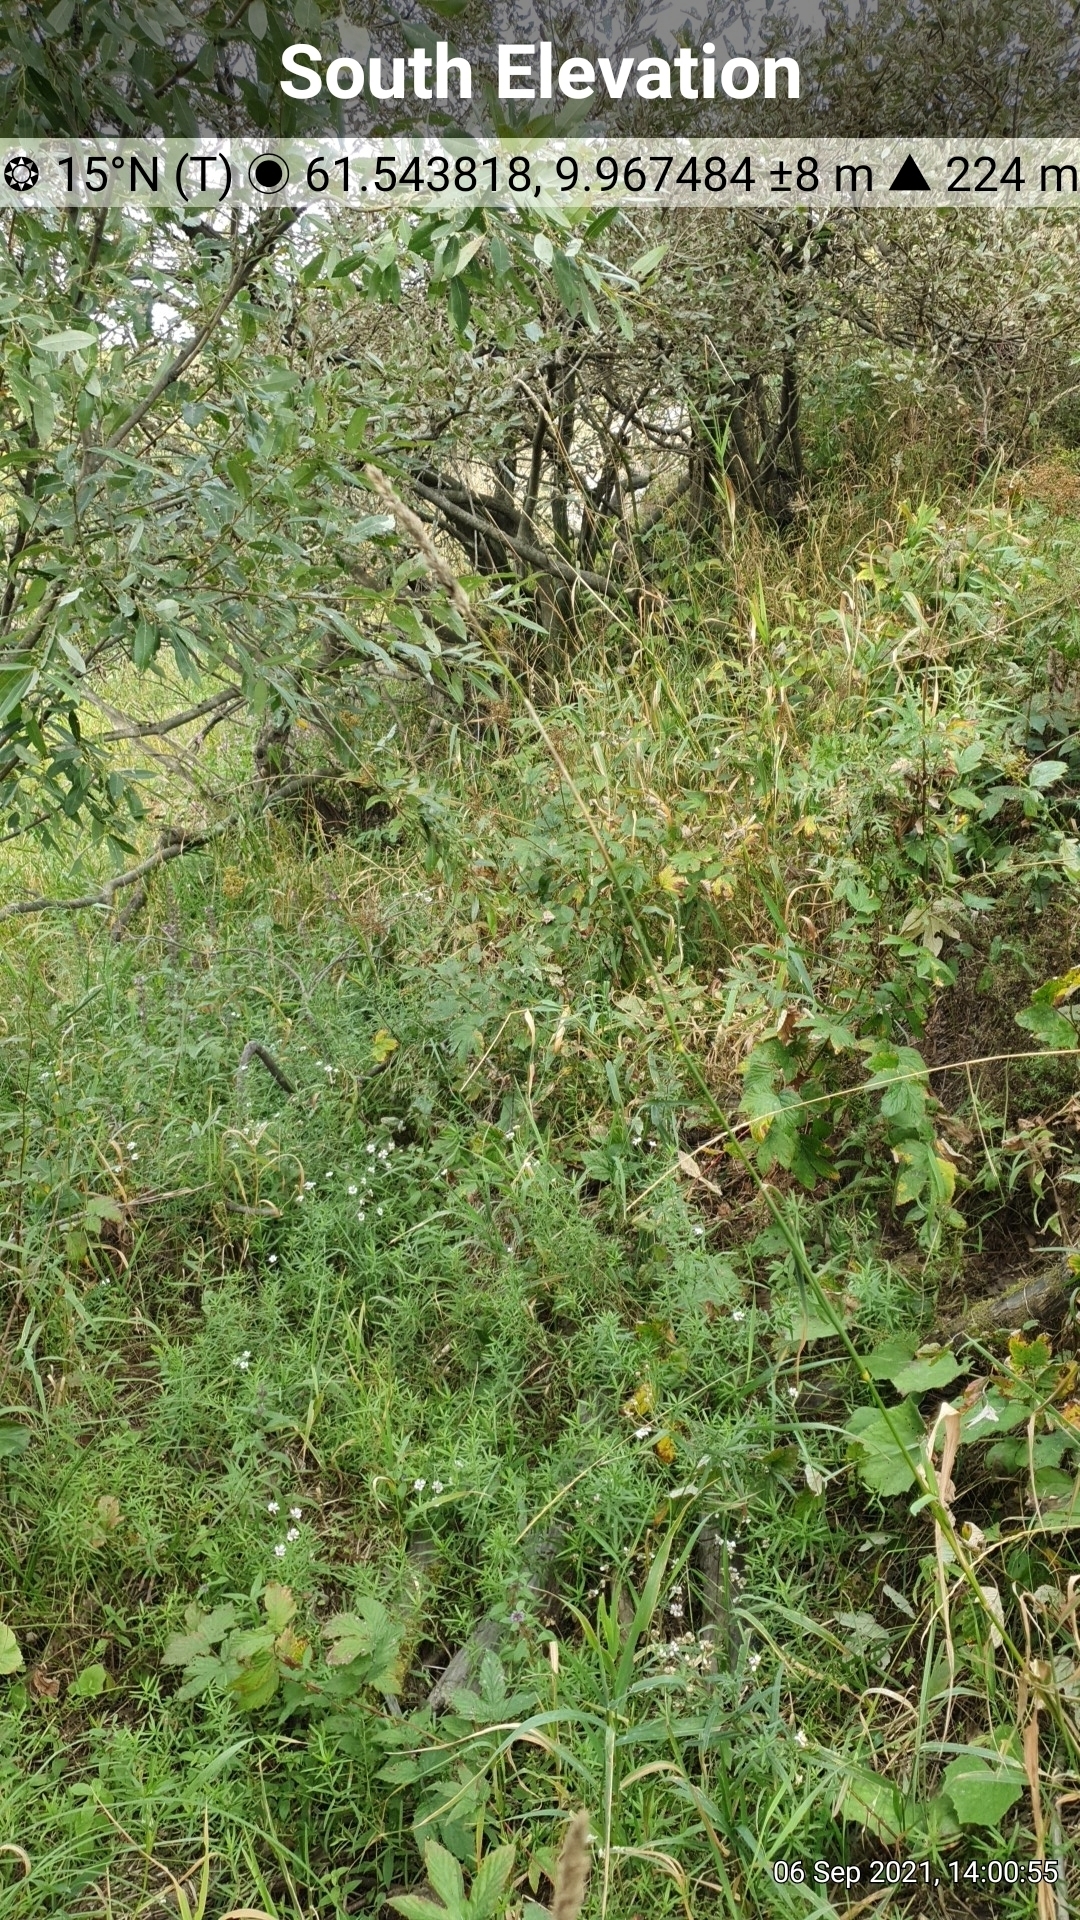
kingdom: Plantae
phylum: Tracheophyta
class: Magnoliopsida
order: Asterales
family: Asteraceae
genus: Achillea
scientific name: Achillea ptarmica
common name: Sneezeweed
